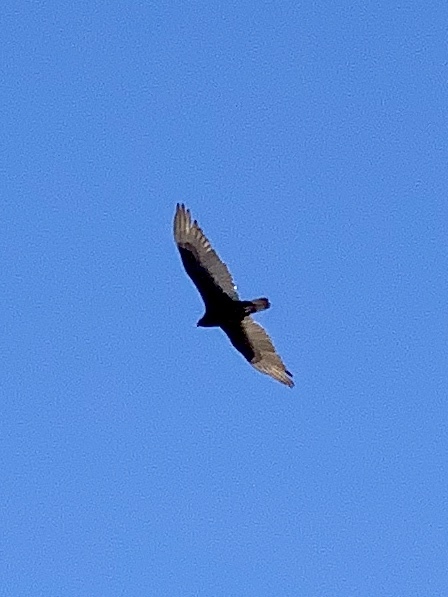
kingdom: Animalia
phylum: Chordata
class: Aves
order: Accipitriformes
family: Cathartidae
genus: Cathartes
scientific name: Cathartes aura
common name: Turkey vulture
